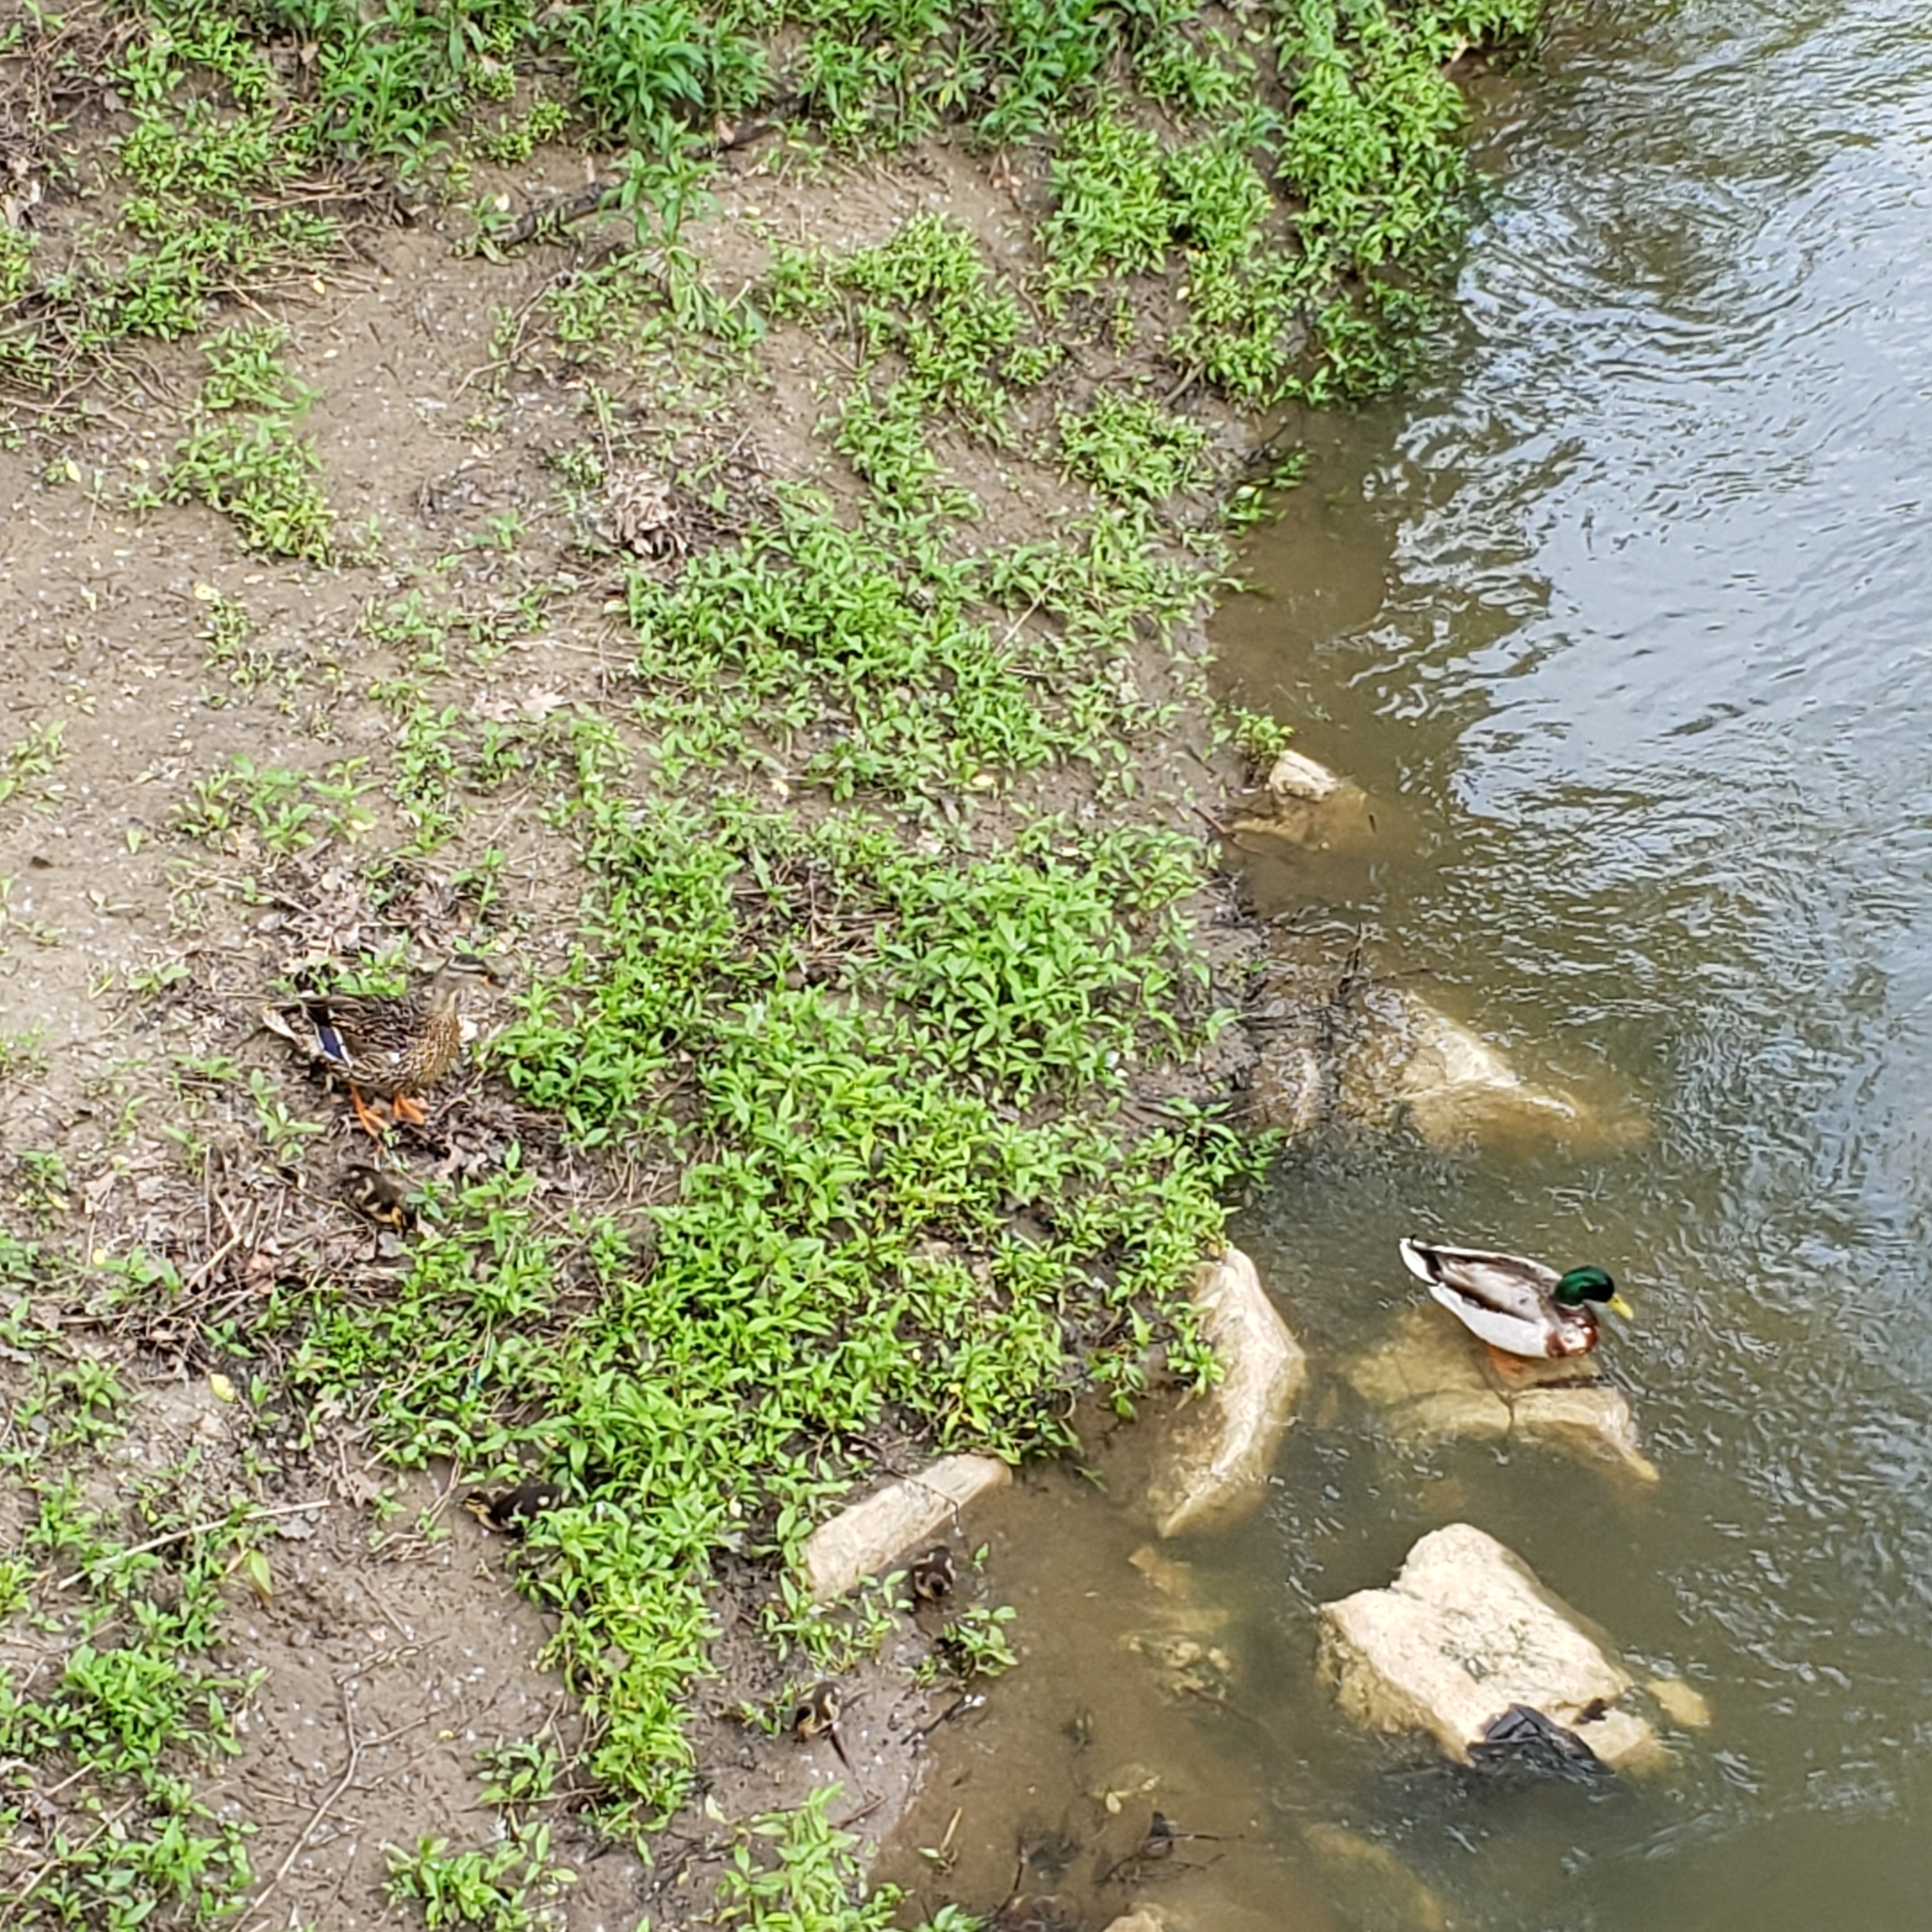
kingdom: Animalia
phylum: Chordata
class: Aves
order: Anseriformes
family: Anatidae
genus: Anas
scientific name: Anas platyrhynchos
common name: Mallard
